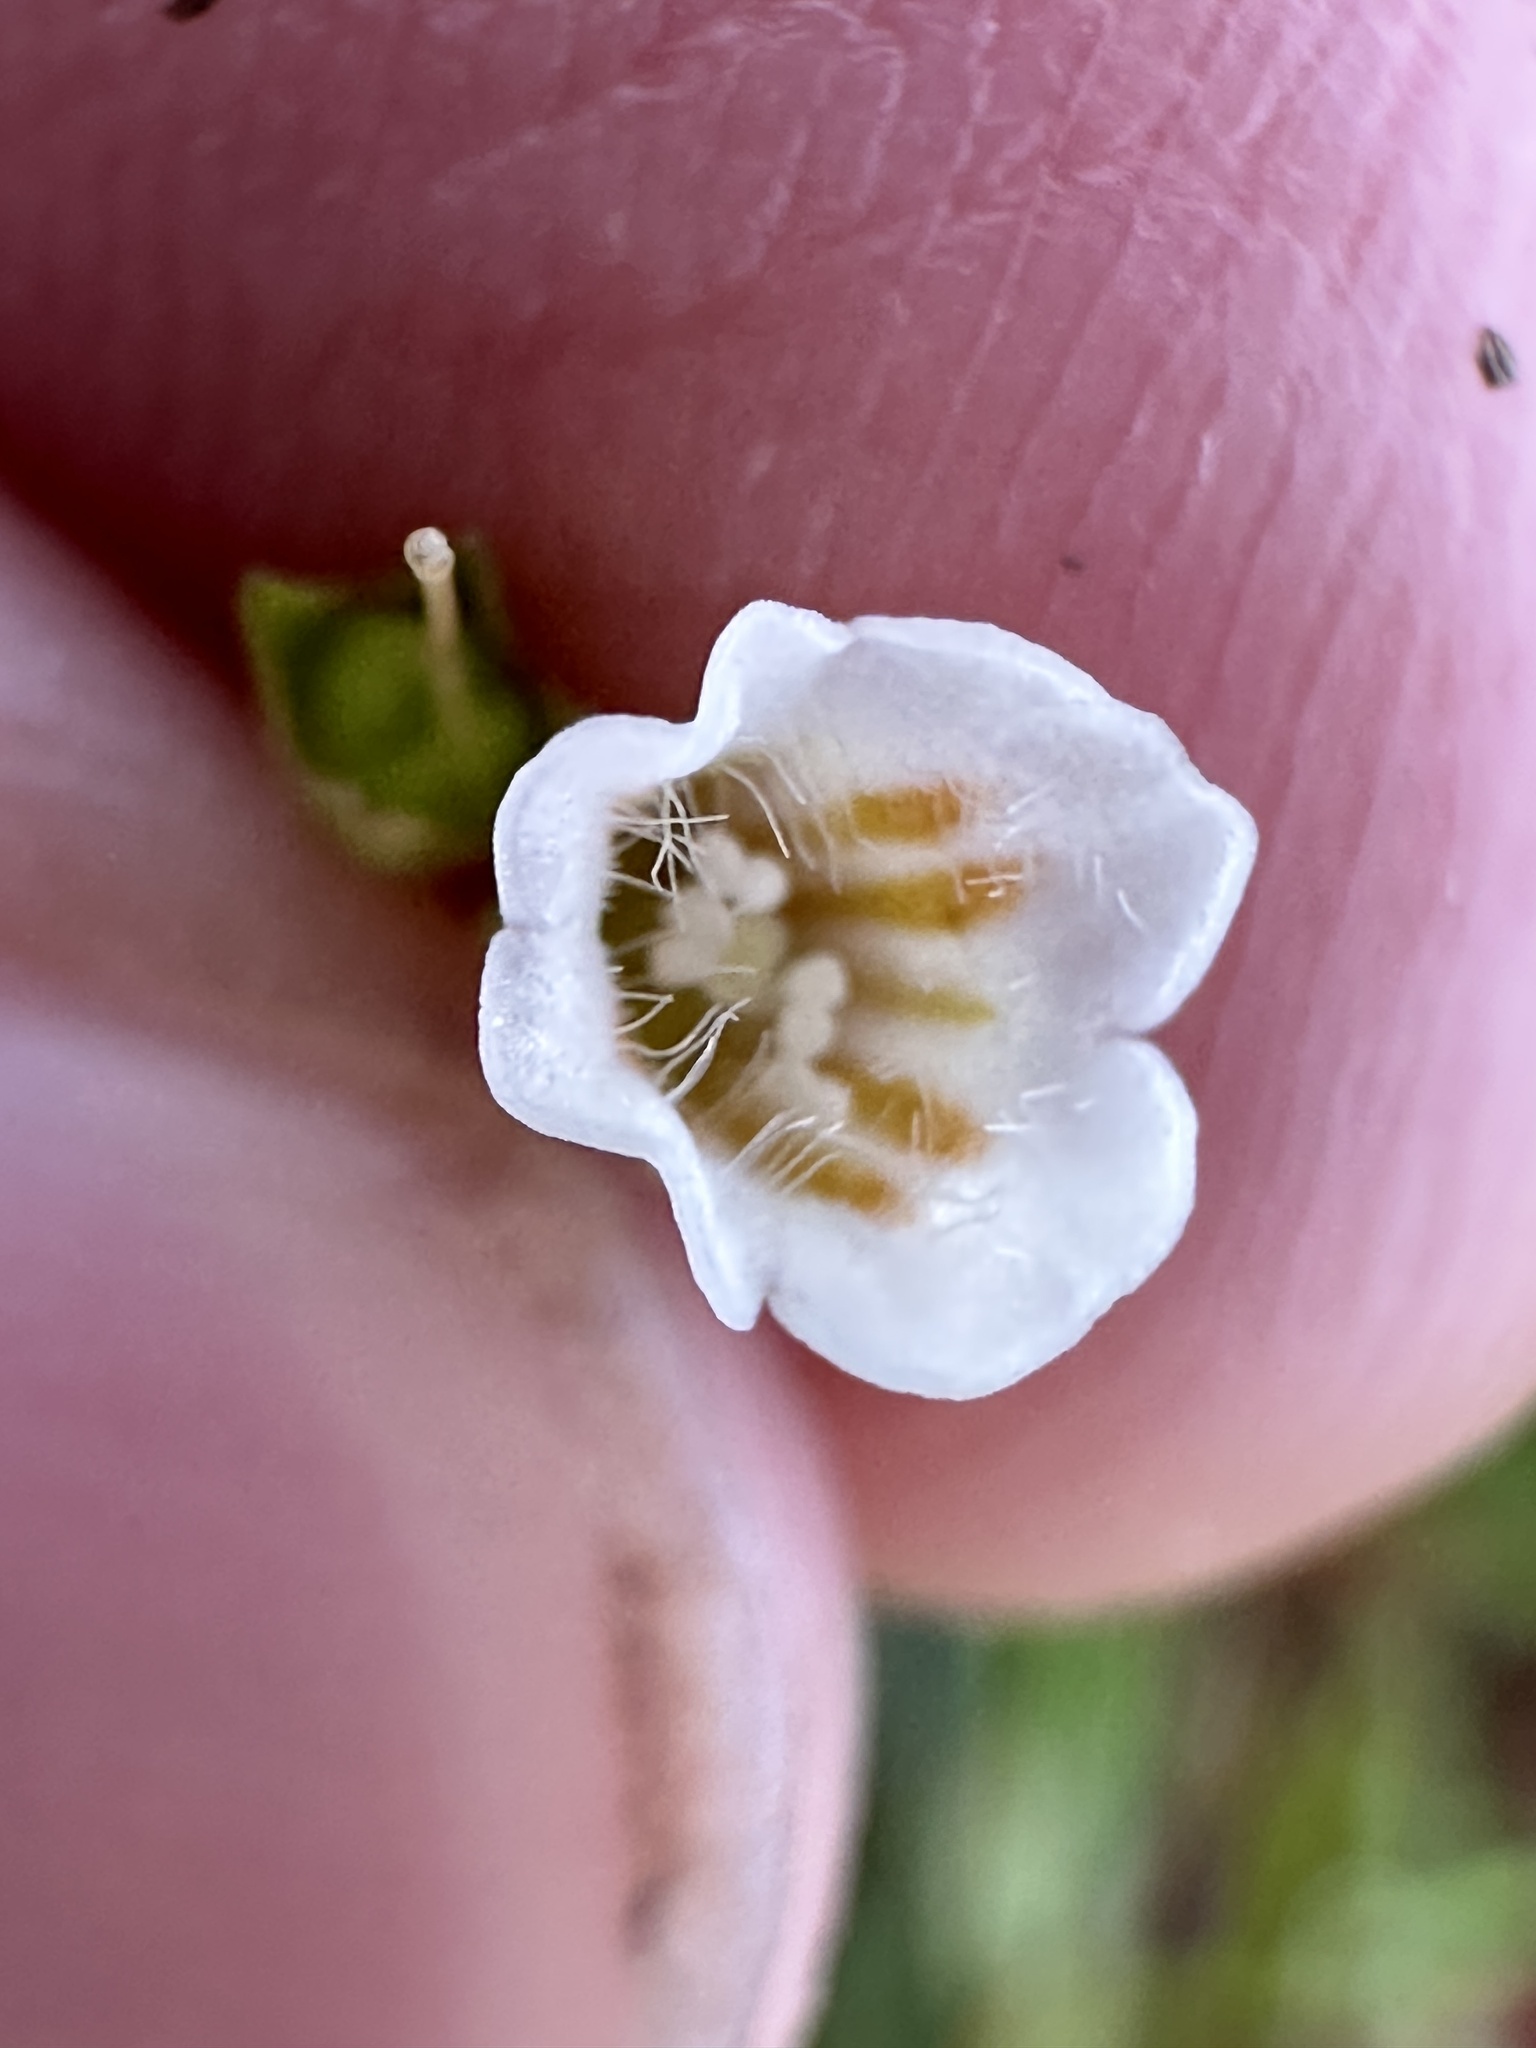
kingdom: Plantae
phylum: Tracheophyta
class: Magnoliopsida
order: Gentianales
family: Loganiaceae
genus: Mitrasacme
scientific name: Mitrasacme pygmaea
